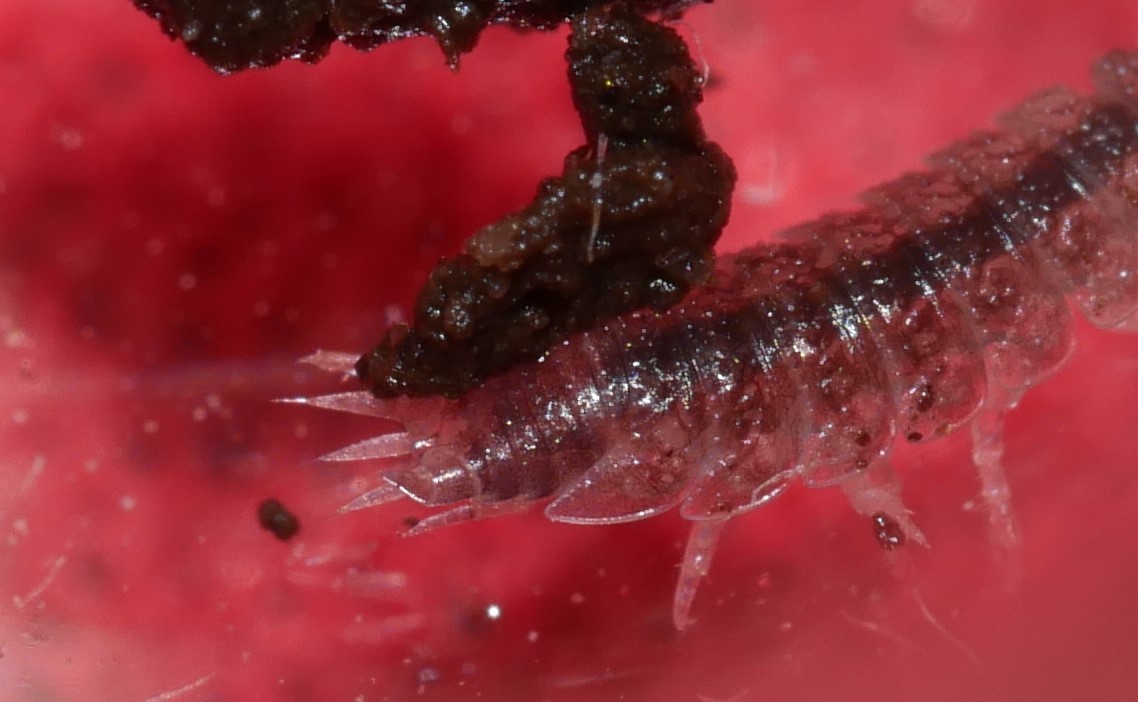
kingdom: Animalia
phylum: Arthropoda
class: Malacostraca
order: Isopoda
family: Trichoniscidae
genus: Miktoniscus
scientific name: Miktoniscus spinosus
